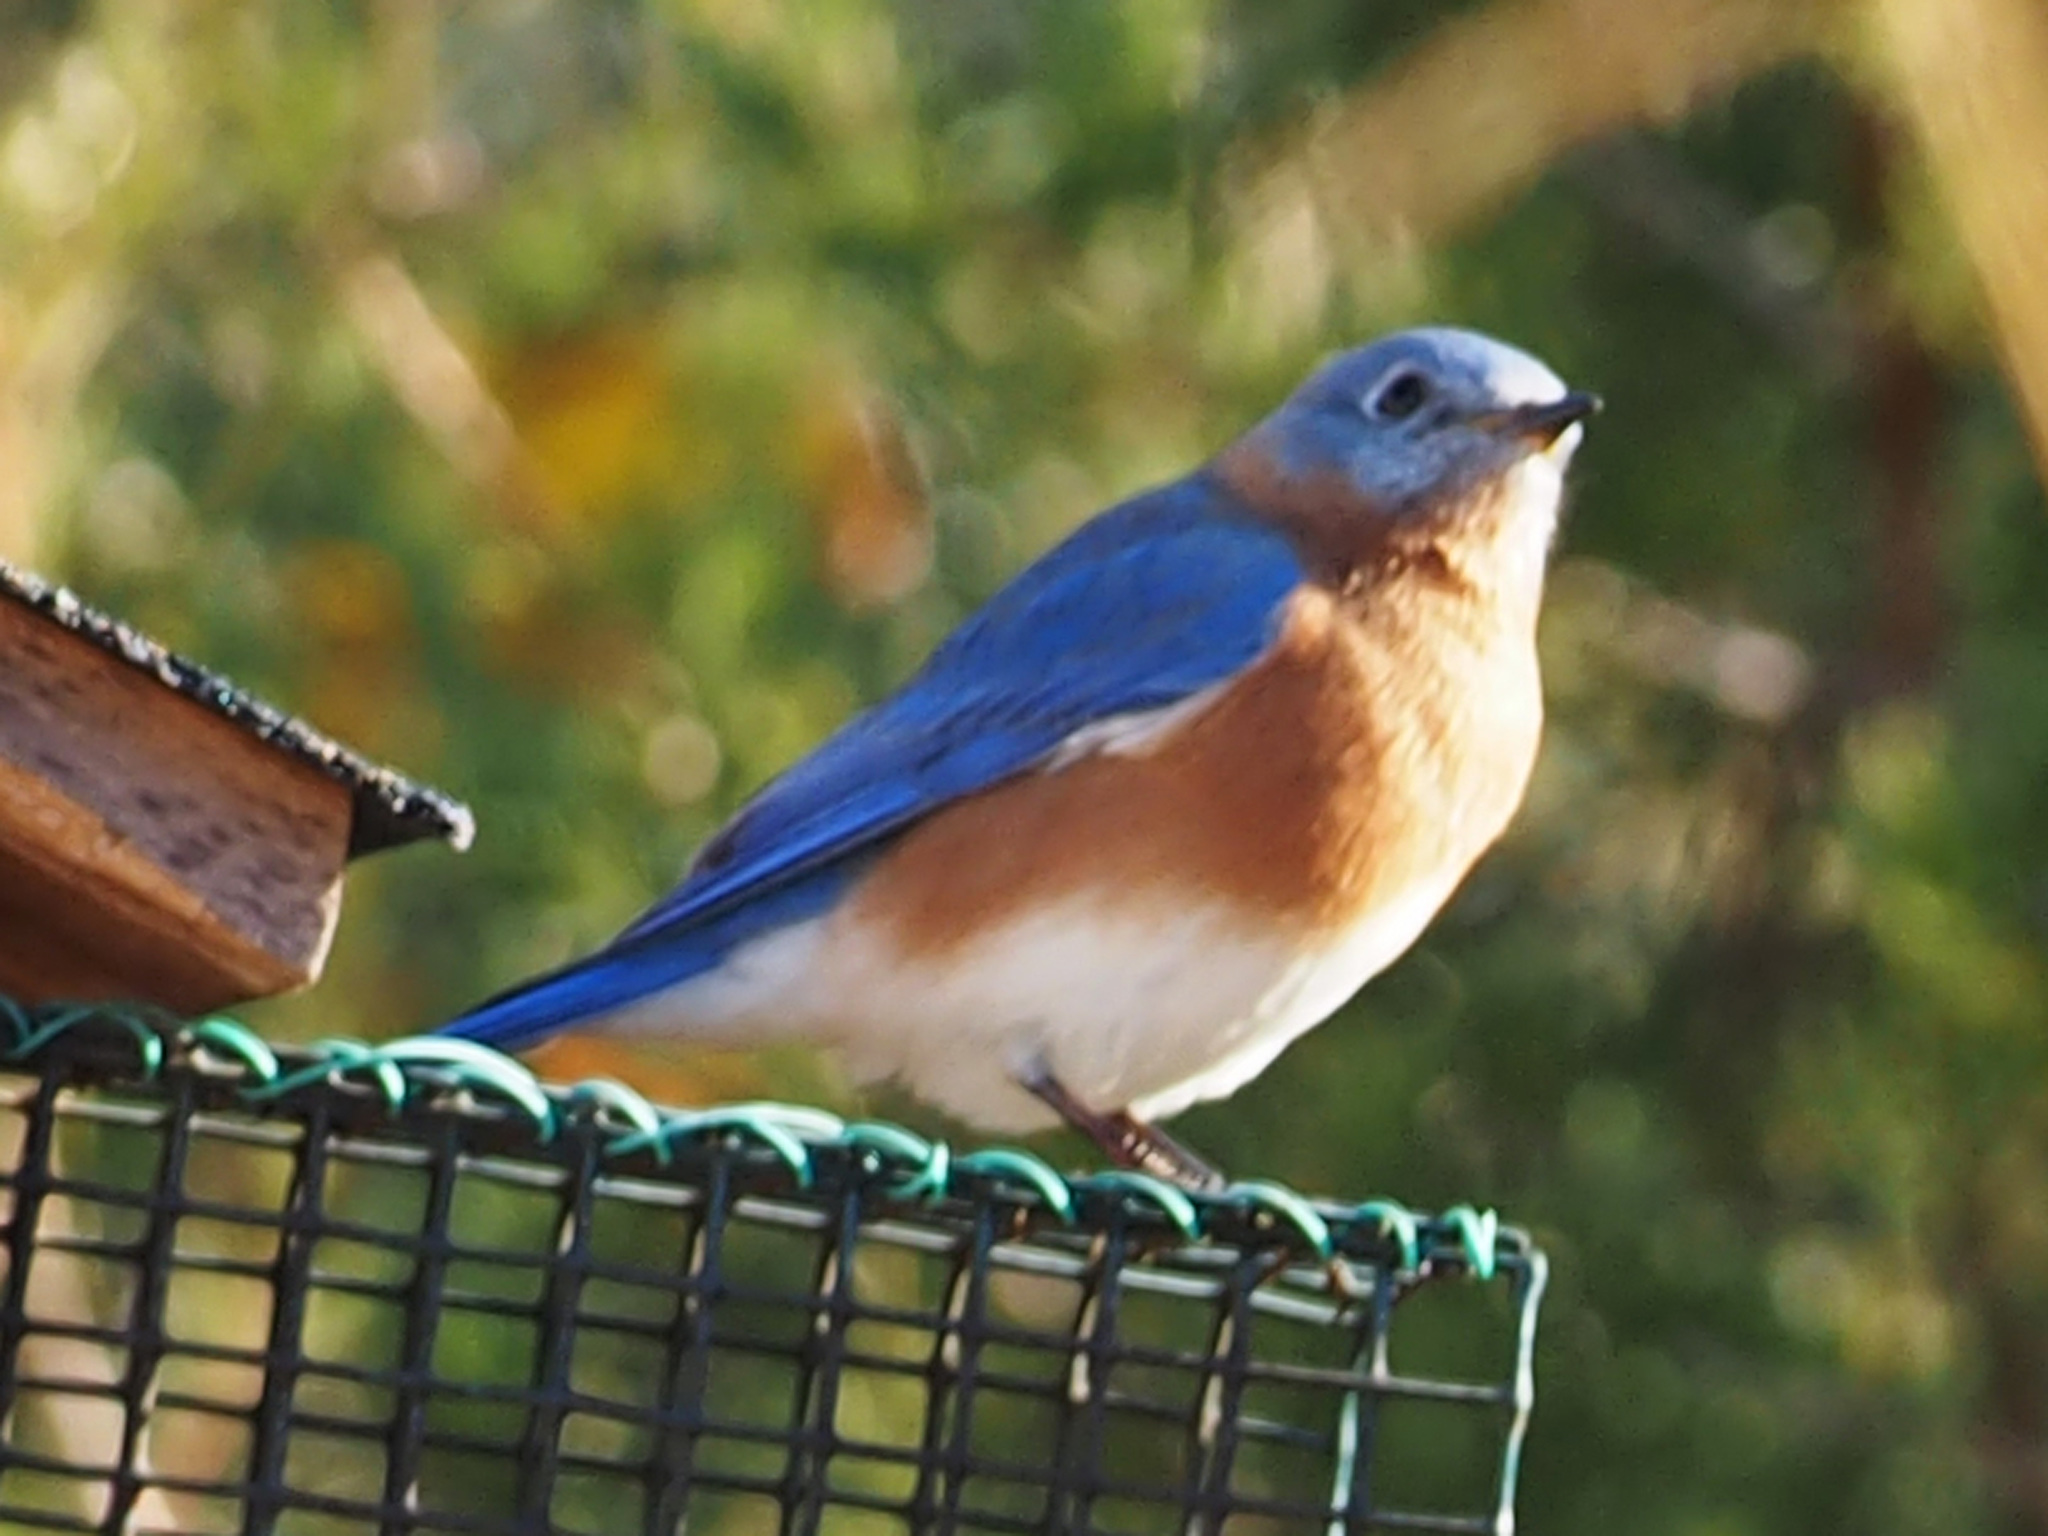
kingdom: Animalia
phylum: Chordata
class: Aves
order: Passeriformes
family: Turdidae
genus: Sialia
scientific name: Sialia sialis
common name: Eastern bluebird
